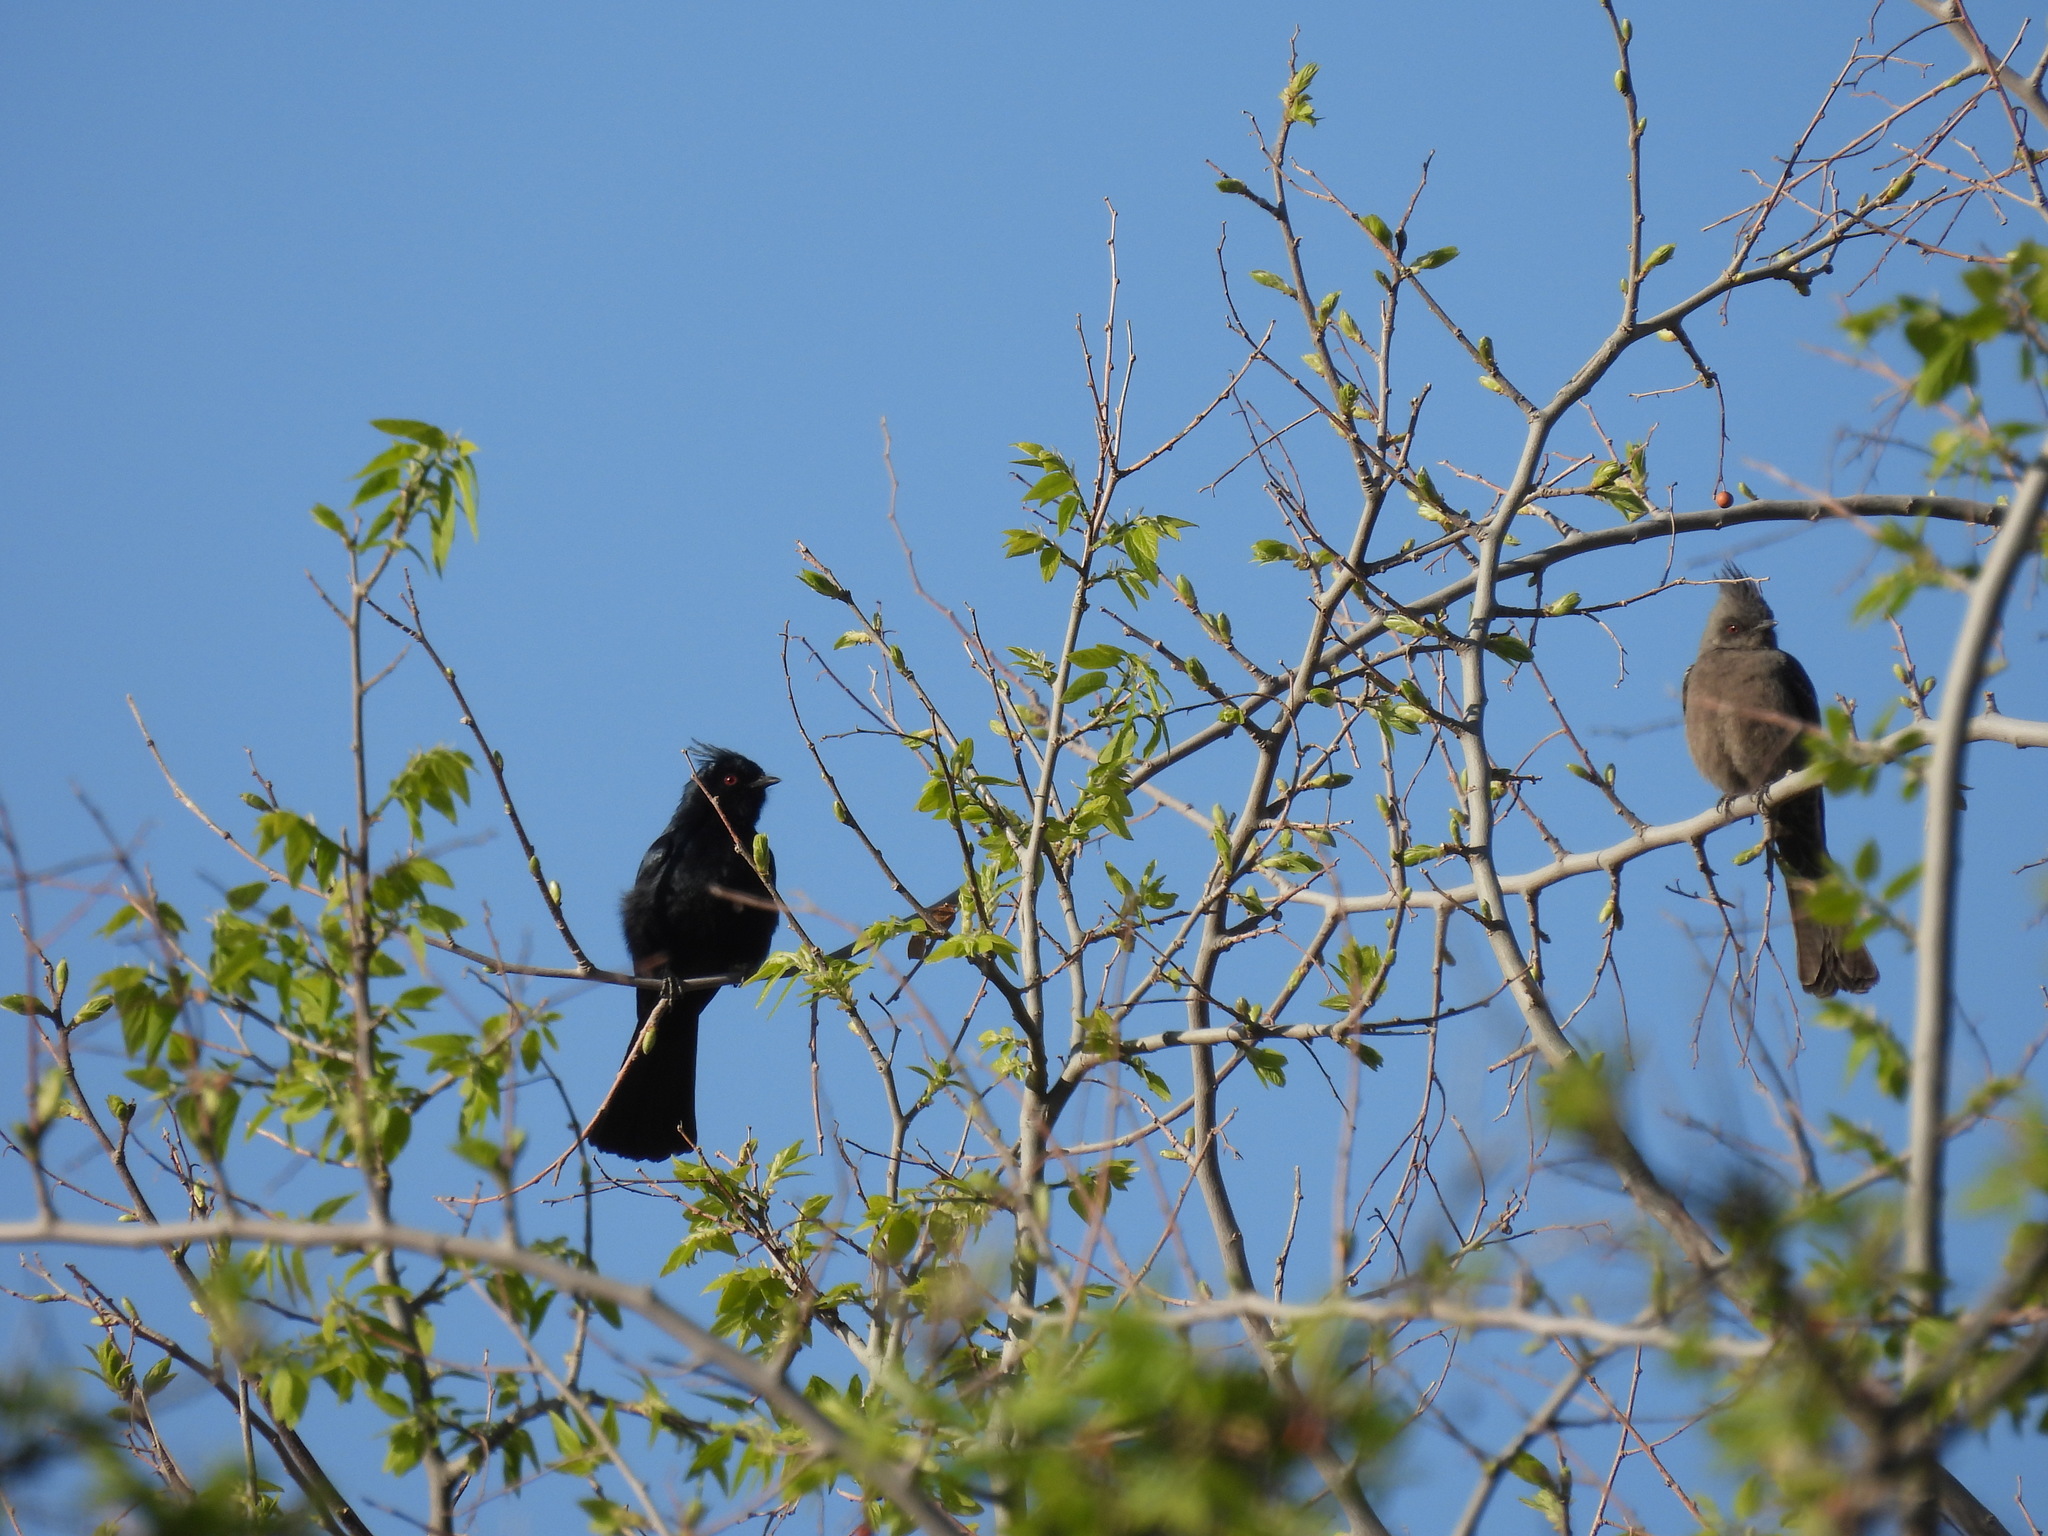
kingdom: Animalia
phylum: Chordata
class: Aves
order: Passeriformes
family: Ptilogonatidae
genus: Phainopepla
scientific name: Phainopepla nitens
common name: Phainopepla
